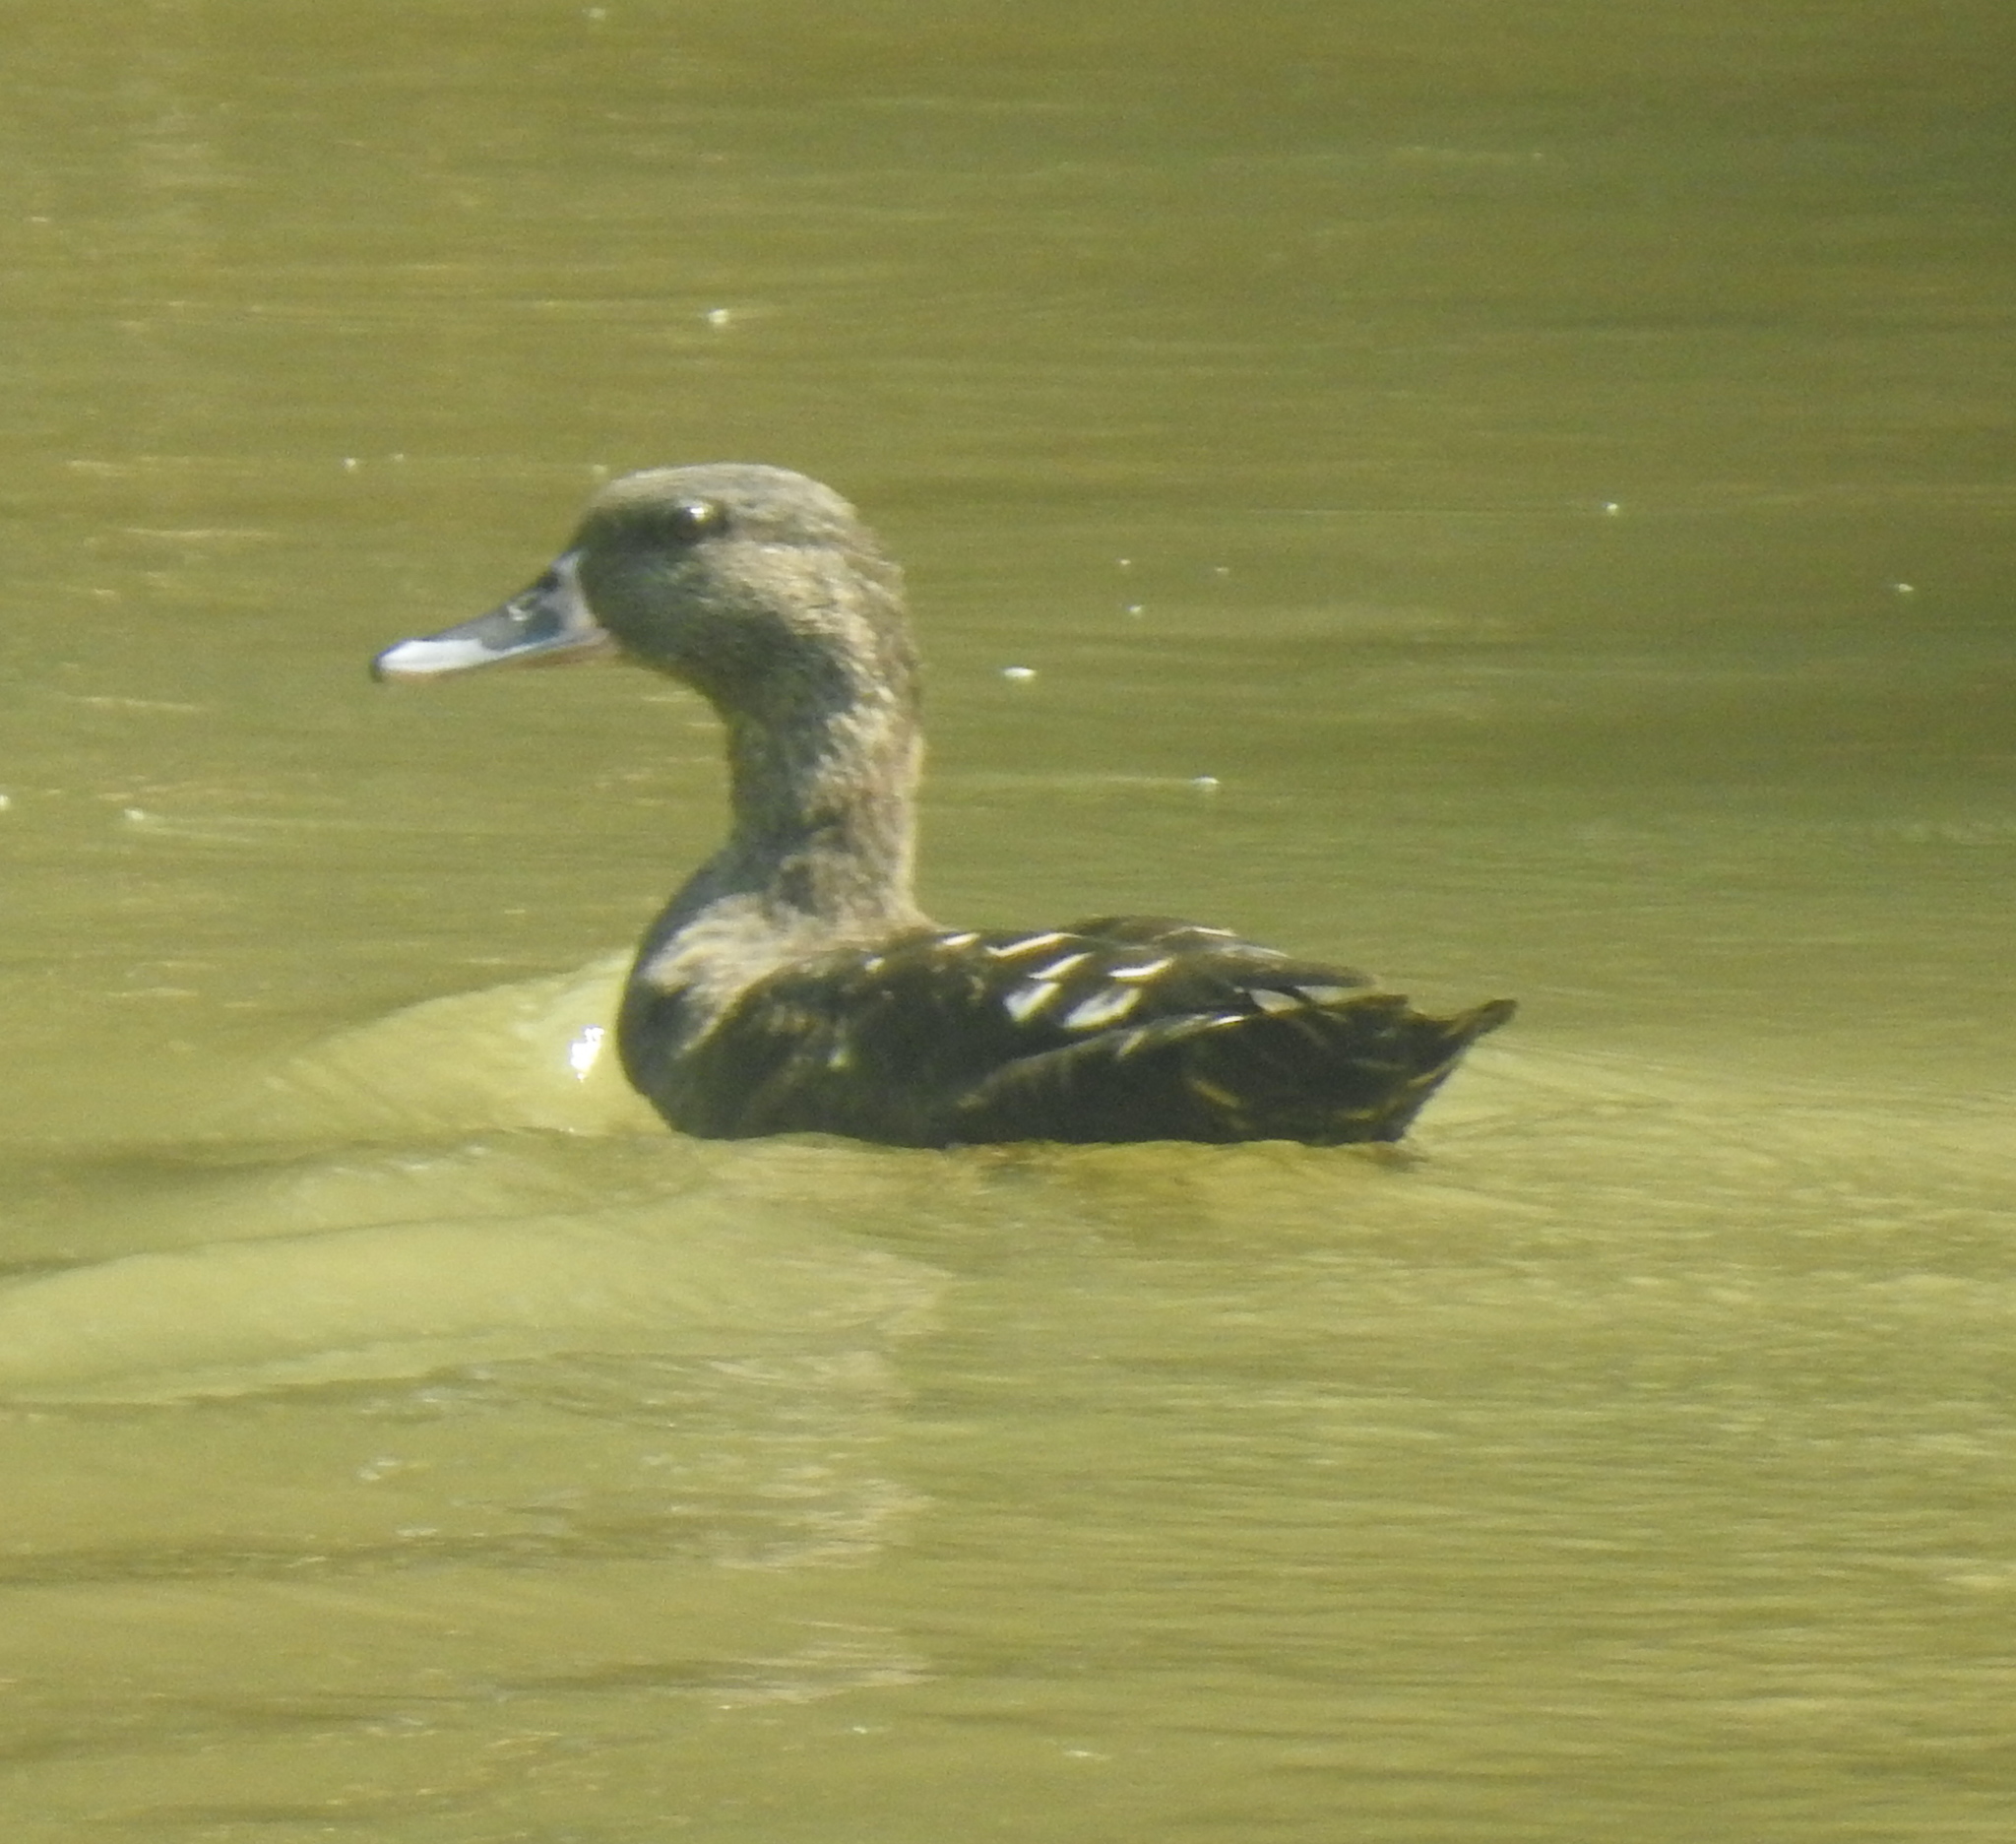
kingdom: Animalia
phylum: Chordata
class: Aves
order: Anseriformes
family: Anatidae
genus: Anas
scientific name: Anas sparsa
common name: African black duck
